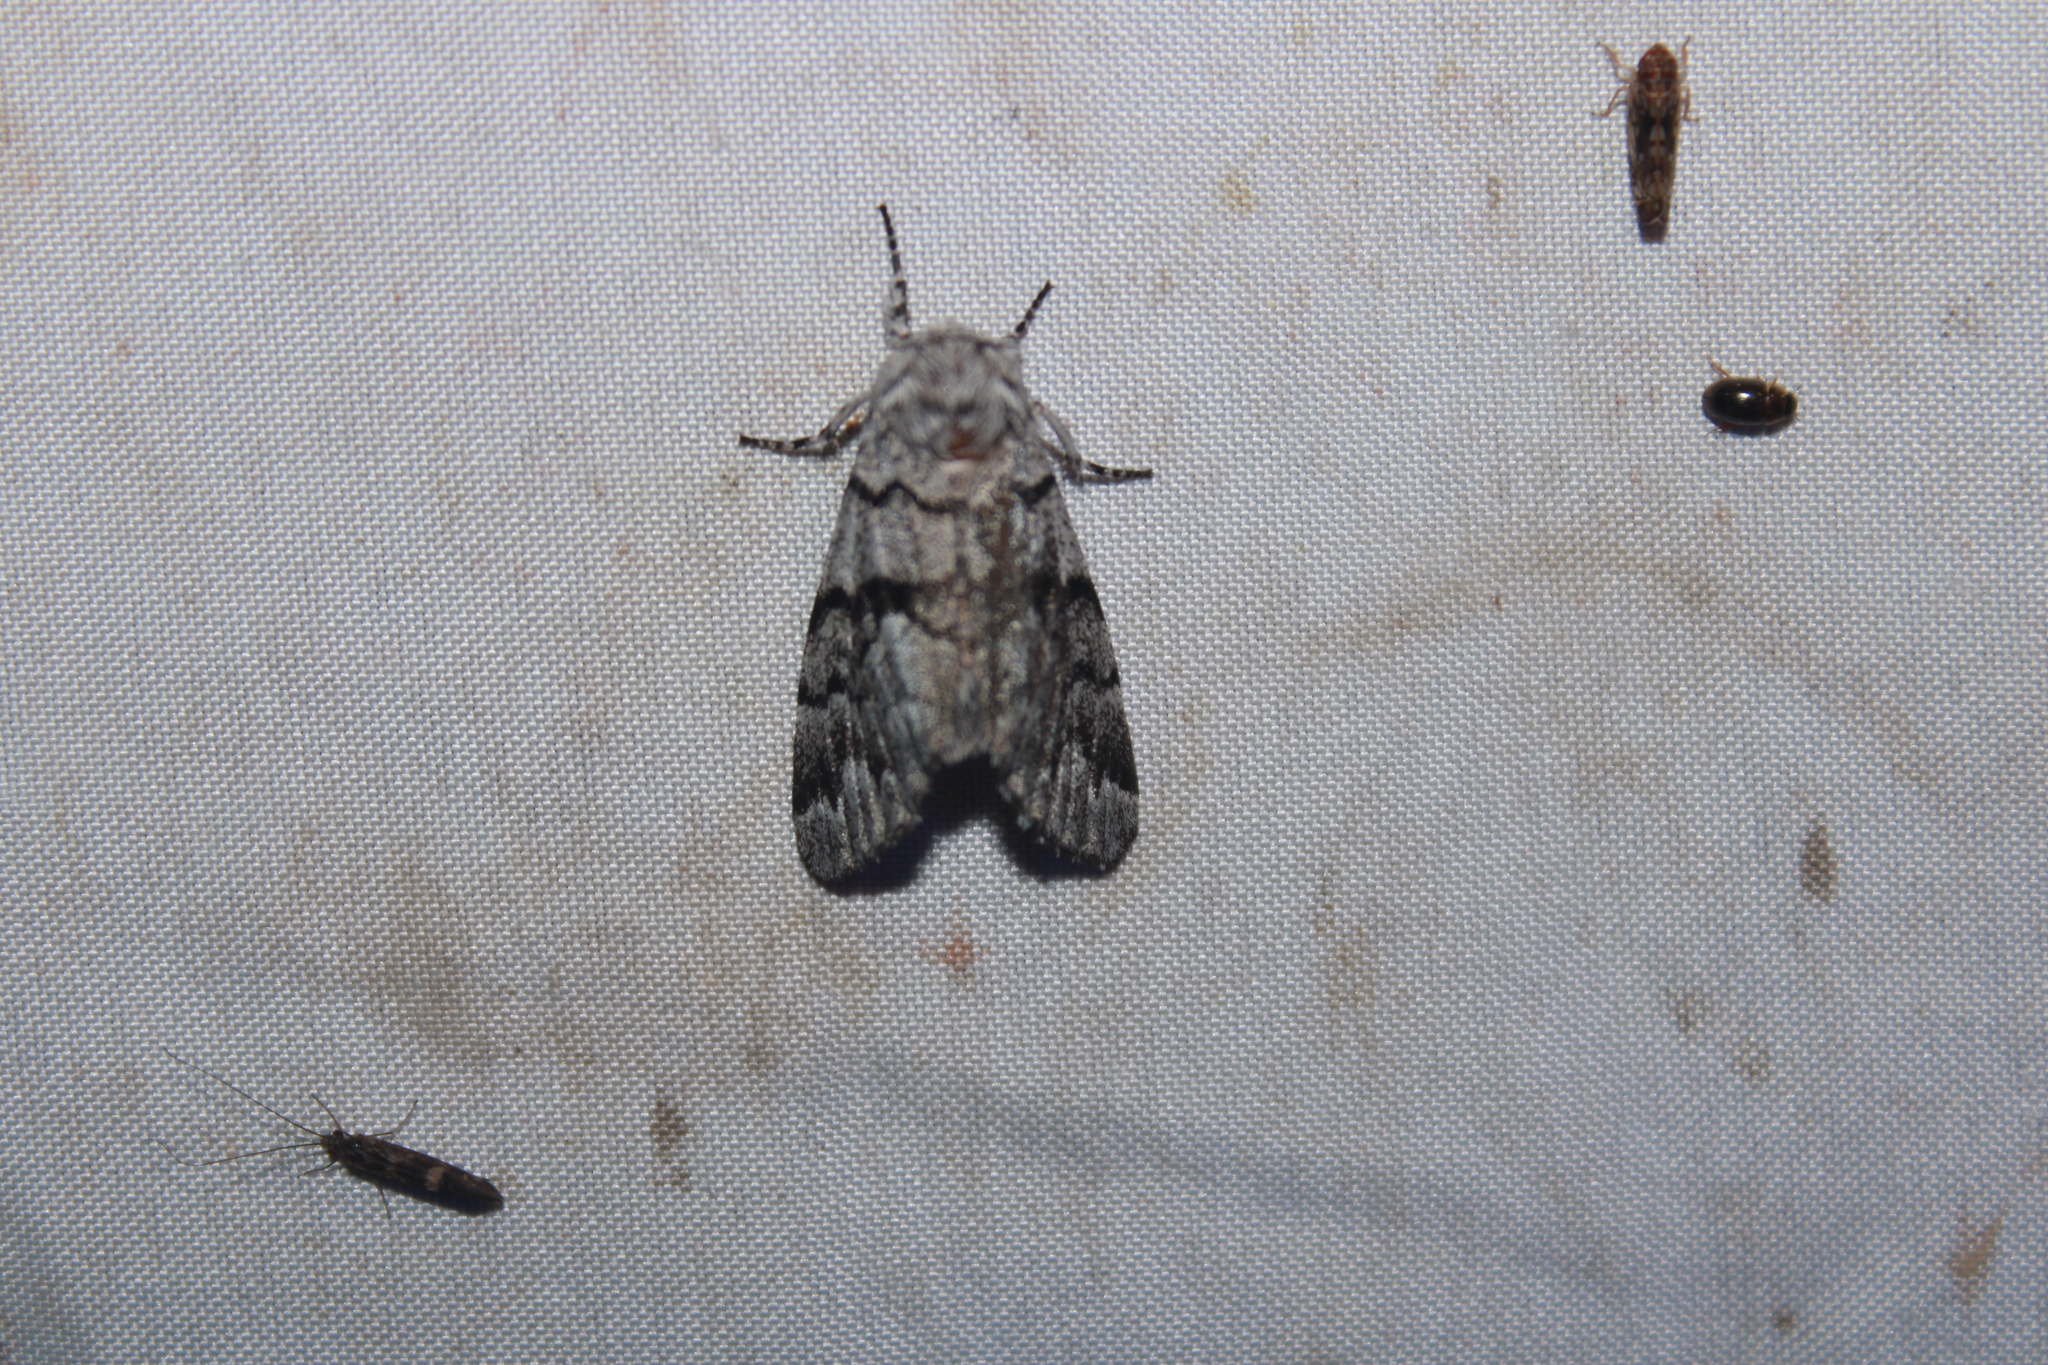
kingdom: Animalia
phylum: Arthropoda
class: Insecta
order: Lepidoptera
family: Noctuidae
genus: Panthea
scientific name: Panthea furcilla
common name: Eastern panthea moth
